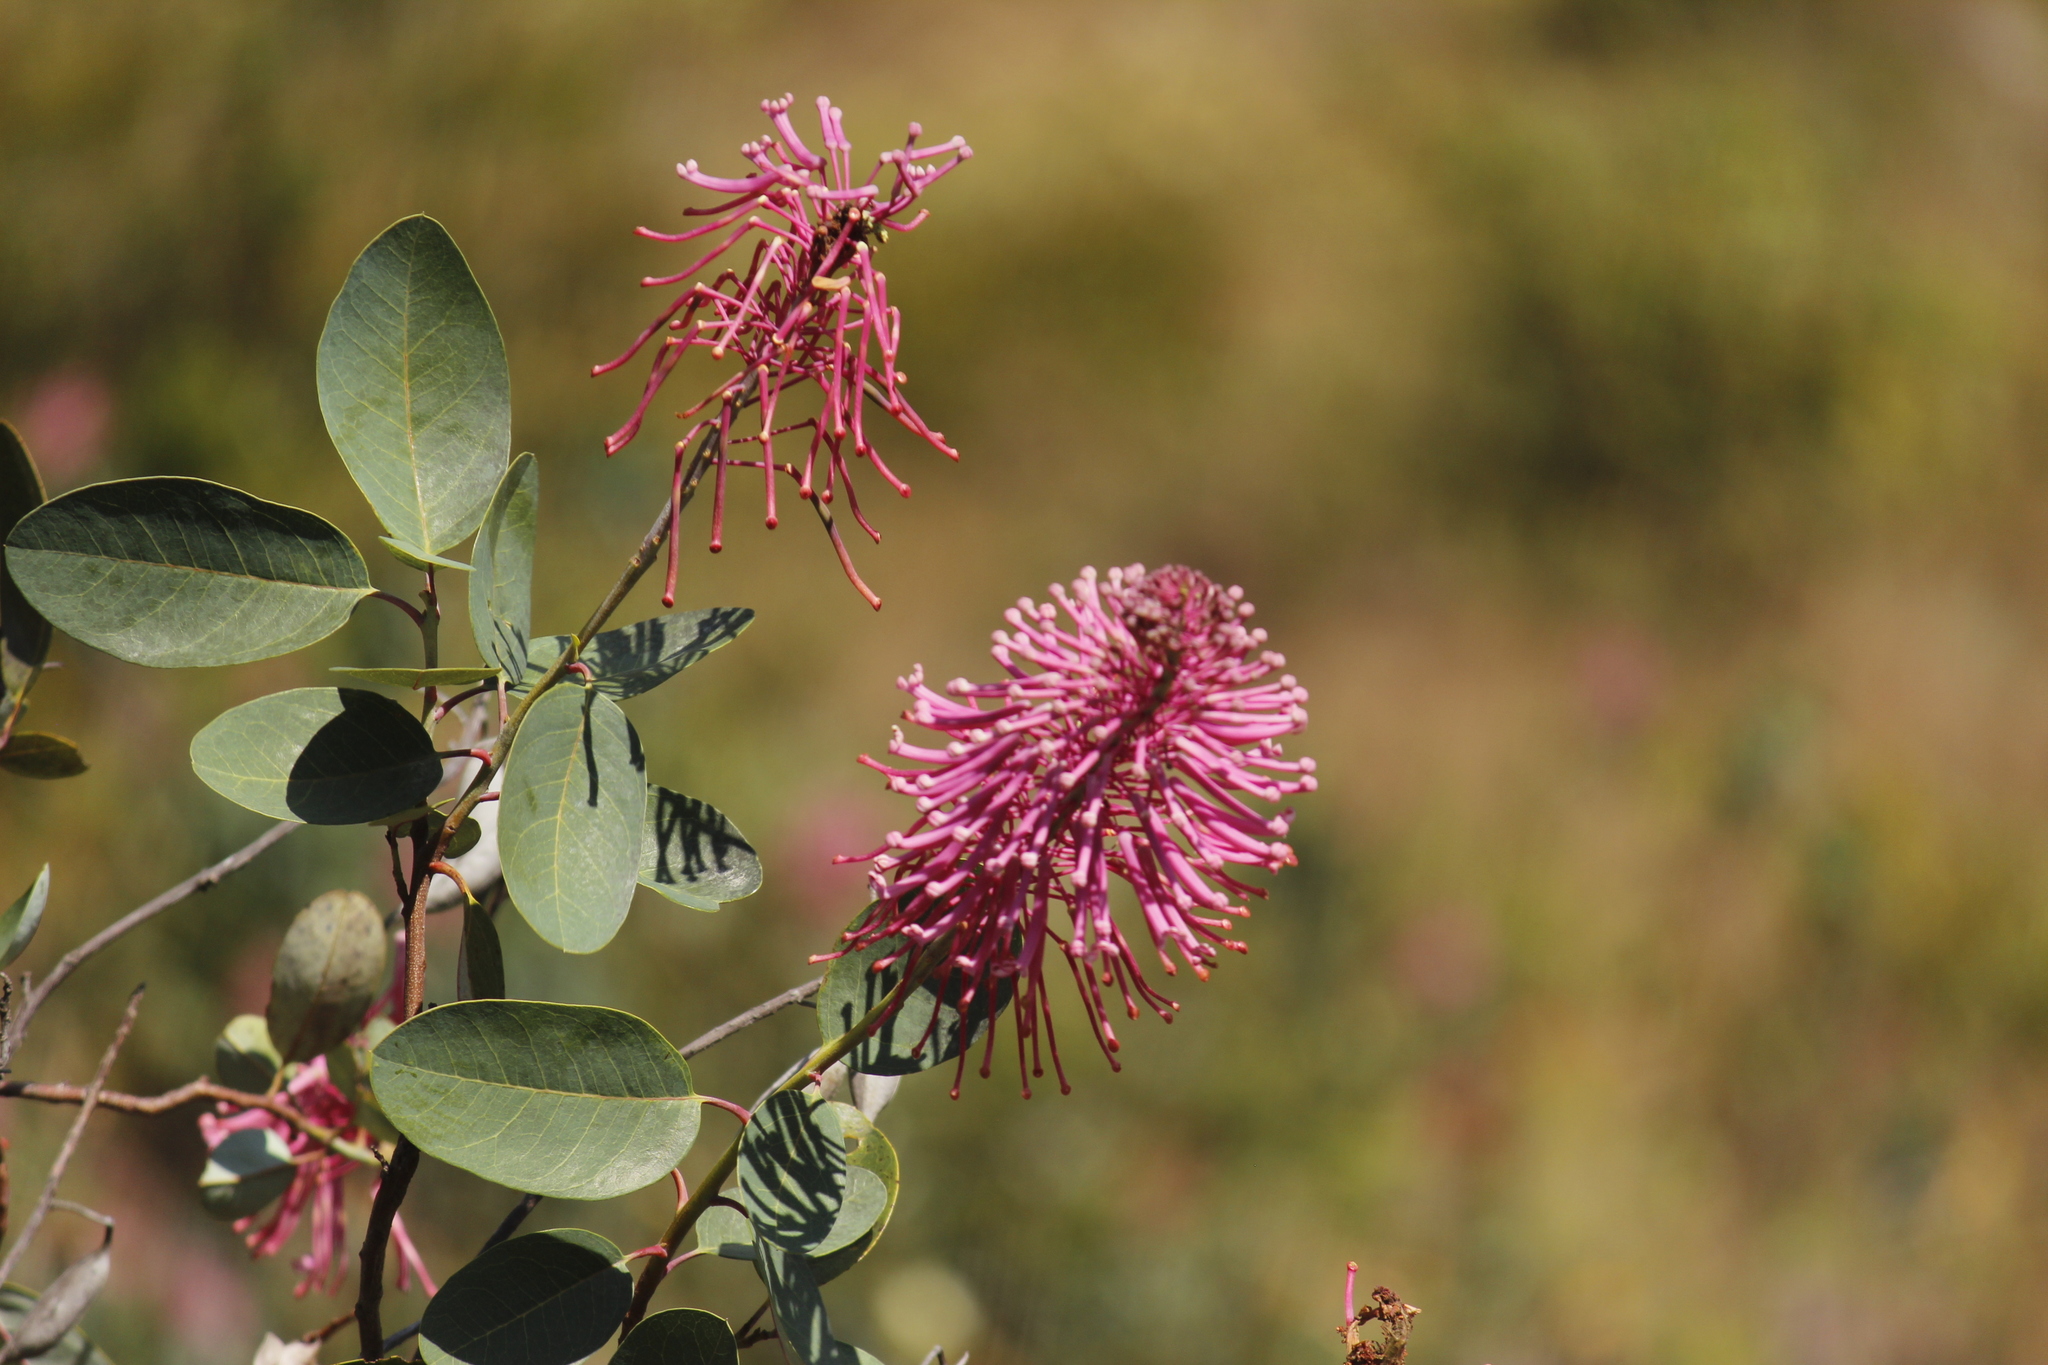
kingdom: Plantae
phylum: Tracheophyta
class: Magnoliopsida
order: Proteales
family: Proteaceae
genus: Oreocallis
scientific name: Oreocallis grandiflora
